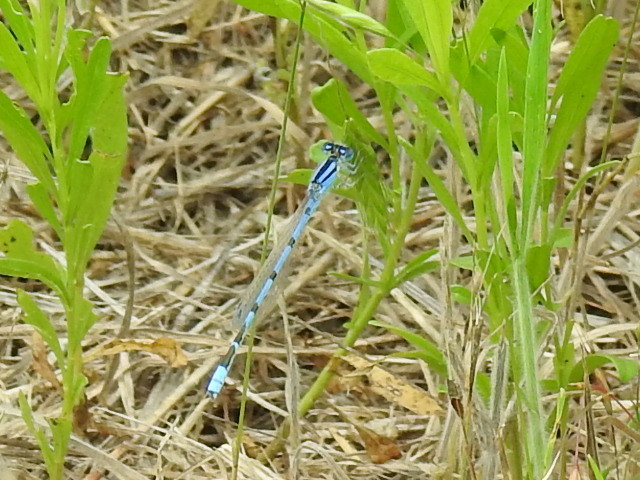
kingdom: Animalia
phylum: Arthropoda
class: Insecta
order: Odonata
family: Coenagrionidae
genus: Enallagma
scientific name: Enallagma civile
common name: Damselfly
